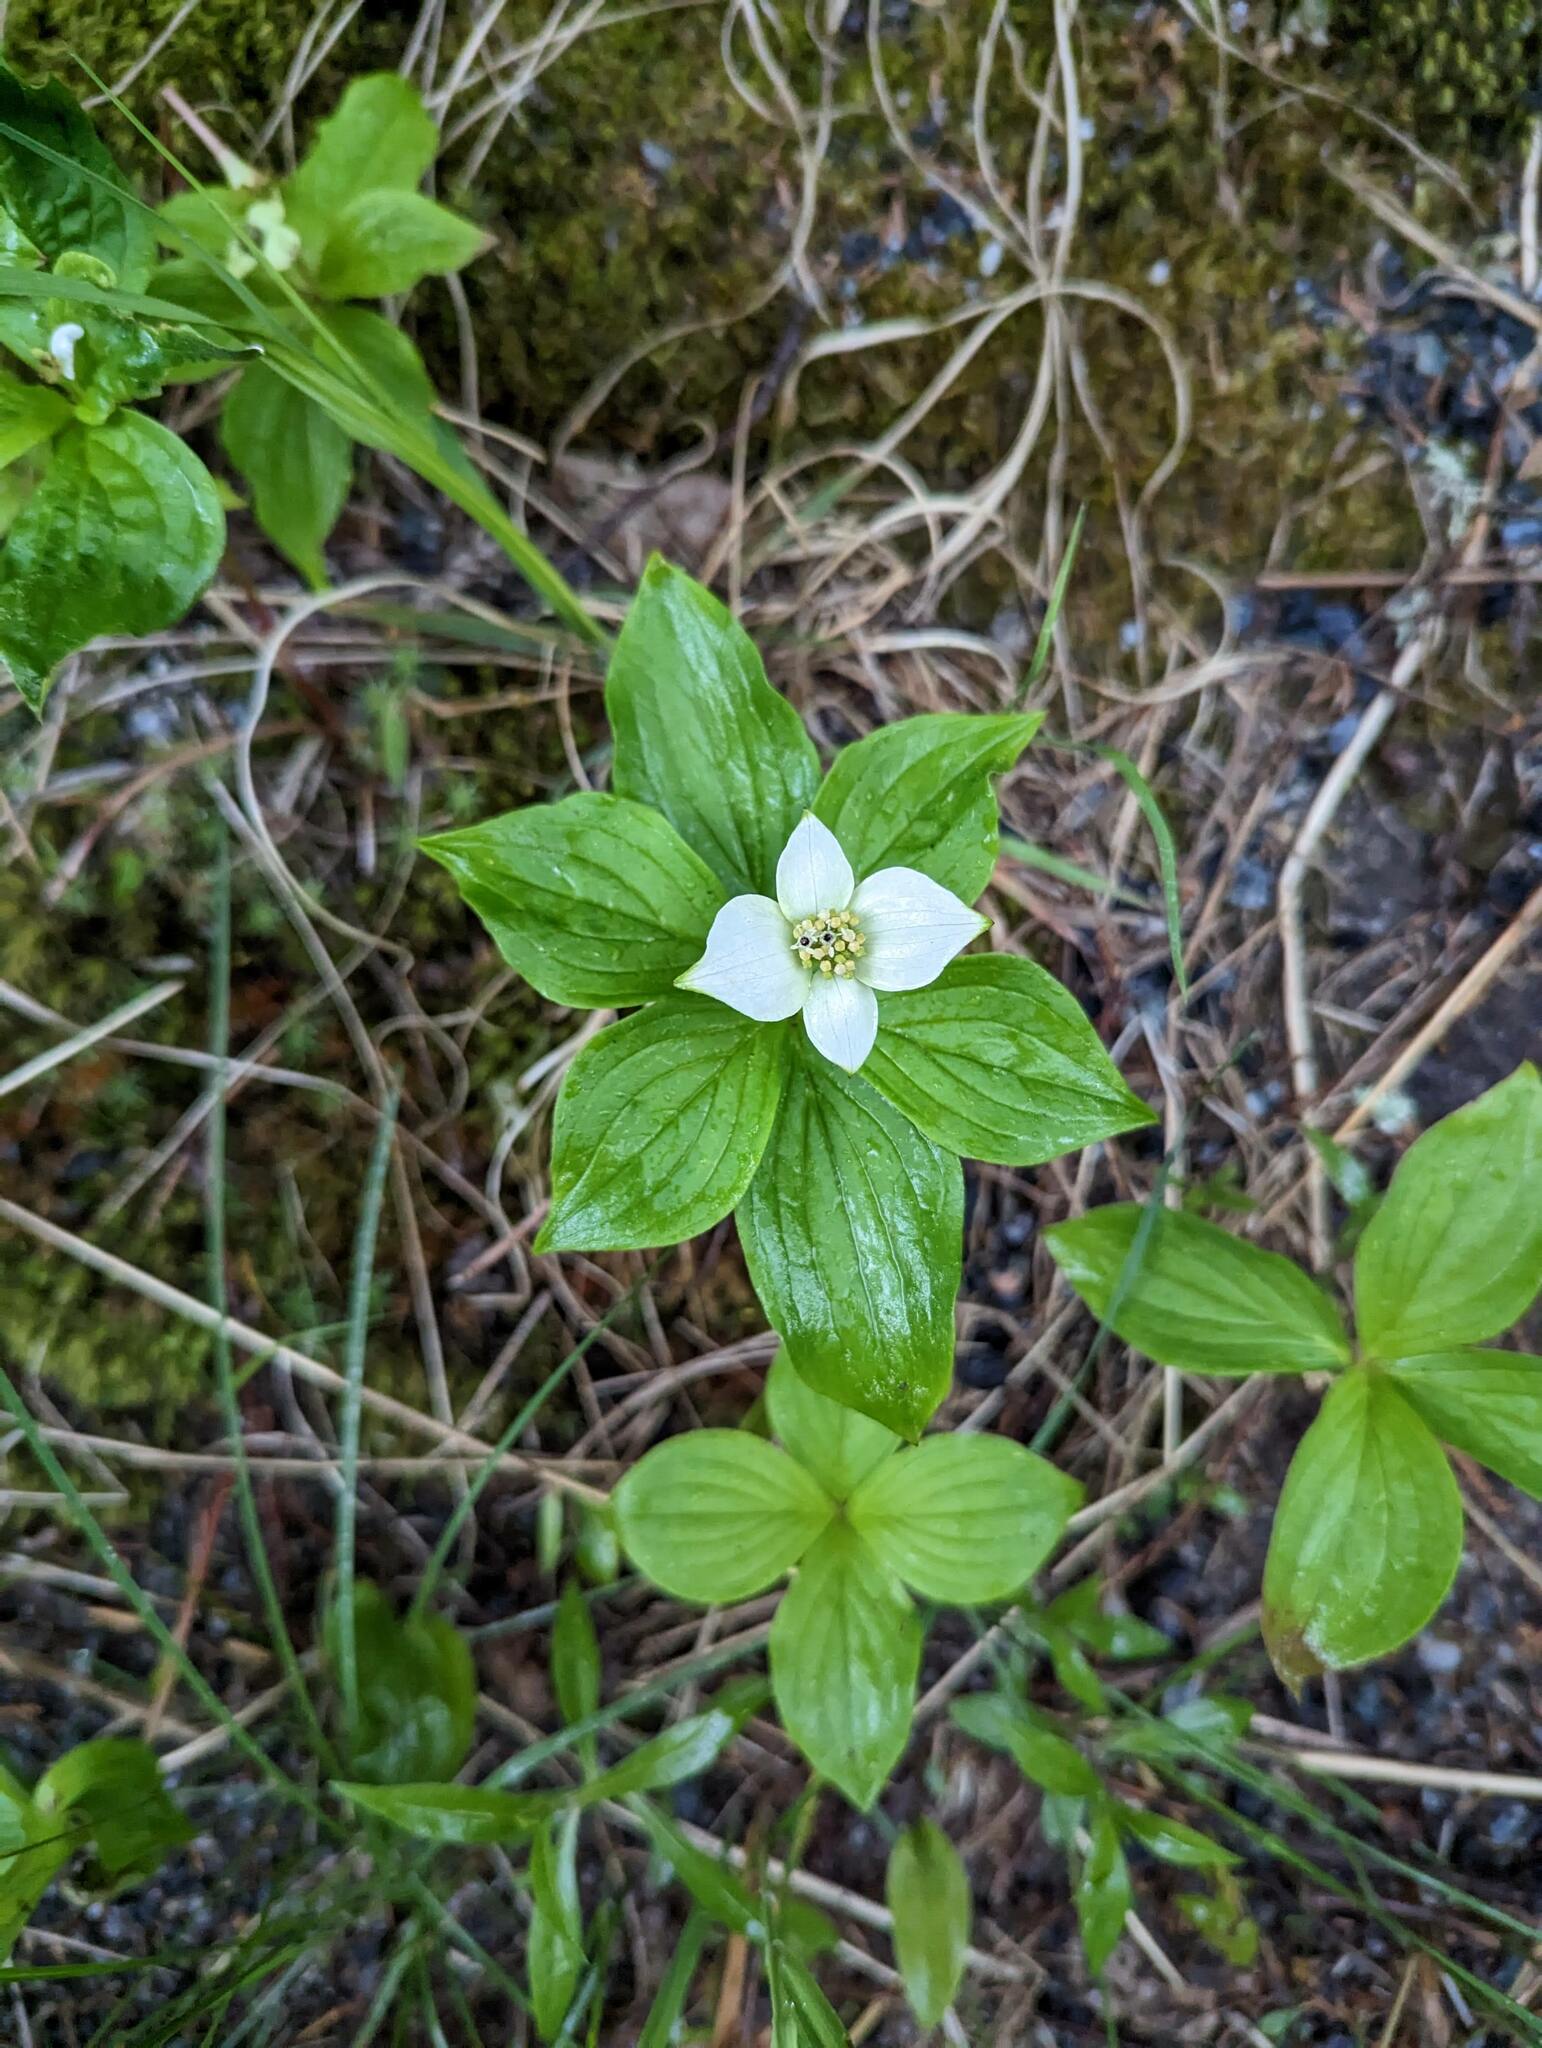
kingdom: Plantae
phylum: Tracheophyta
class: Magnoliopsida
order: Cornales
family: Cornaceae
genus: Cornus
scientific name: Cornus canadensis
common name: Creeping dogwood
